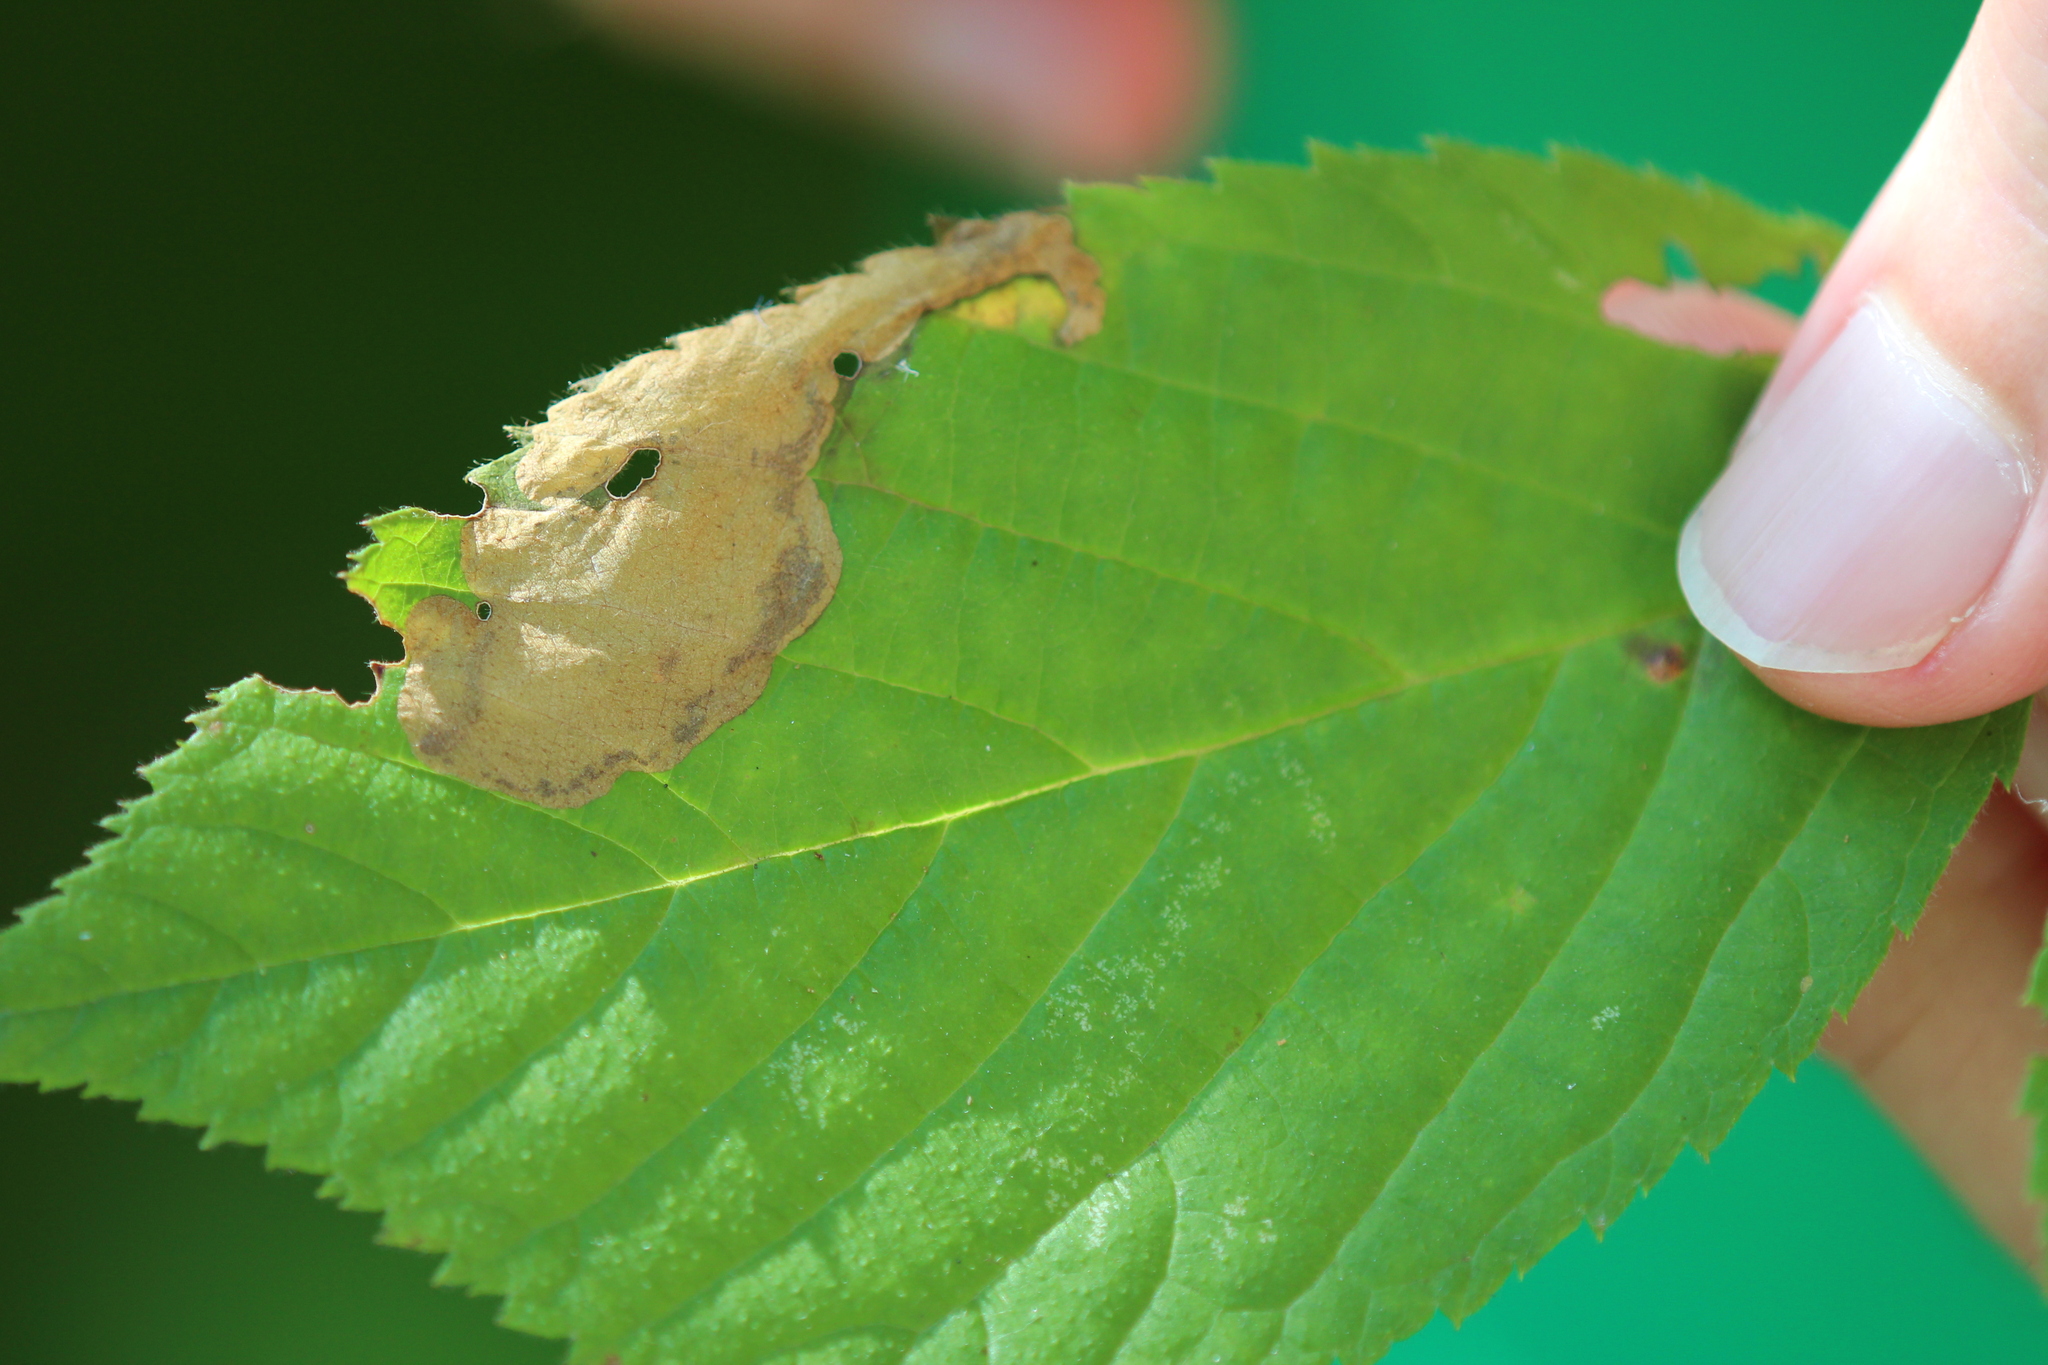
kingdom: Animalia
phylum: Arthropoda
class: Insecta
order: Hymenoptera
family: Tenthredinidae
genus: Metallus
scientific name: Metallus rohweri
